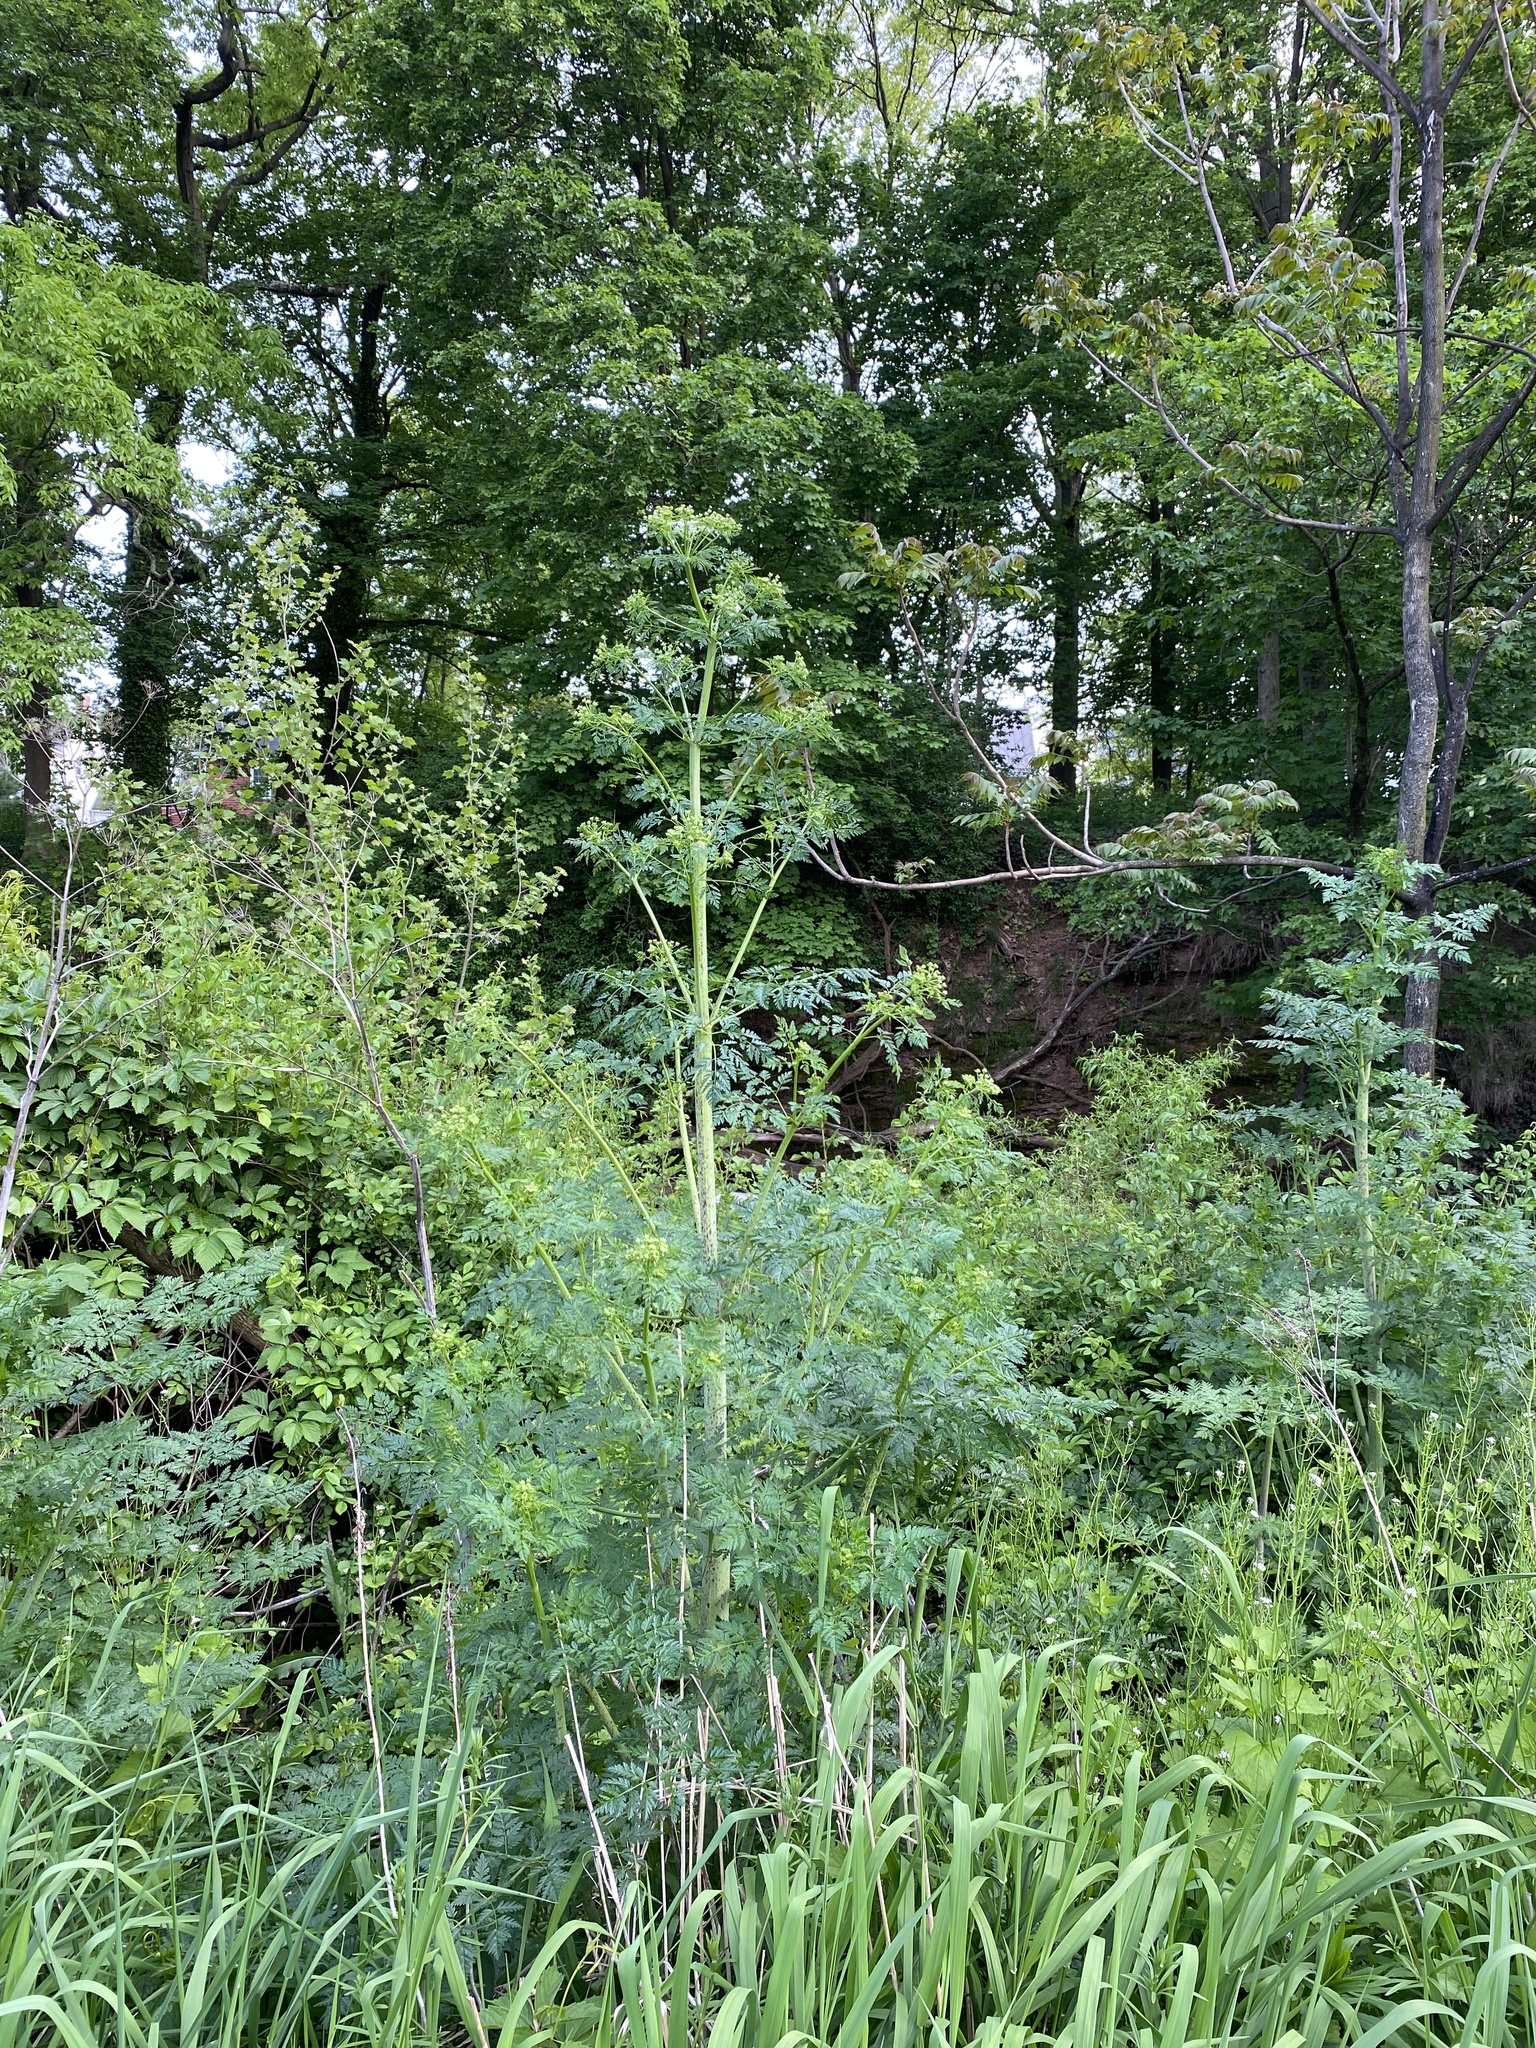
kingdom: Plantae
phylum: Tracheophyta
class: Magnoliopsida
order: Apiales
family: Apiaceae
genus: Conium
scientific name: Conium maculatum
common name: Hemlock
